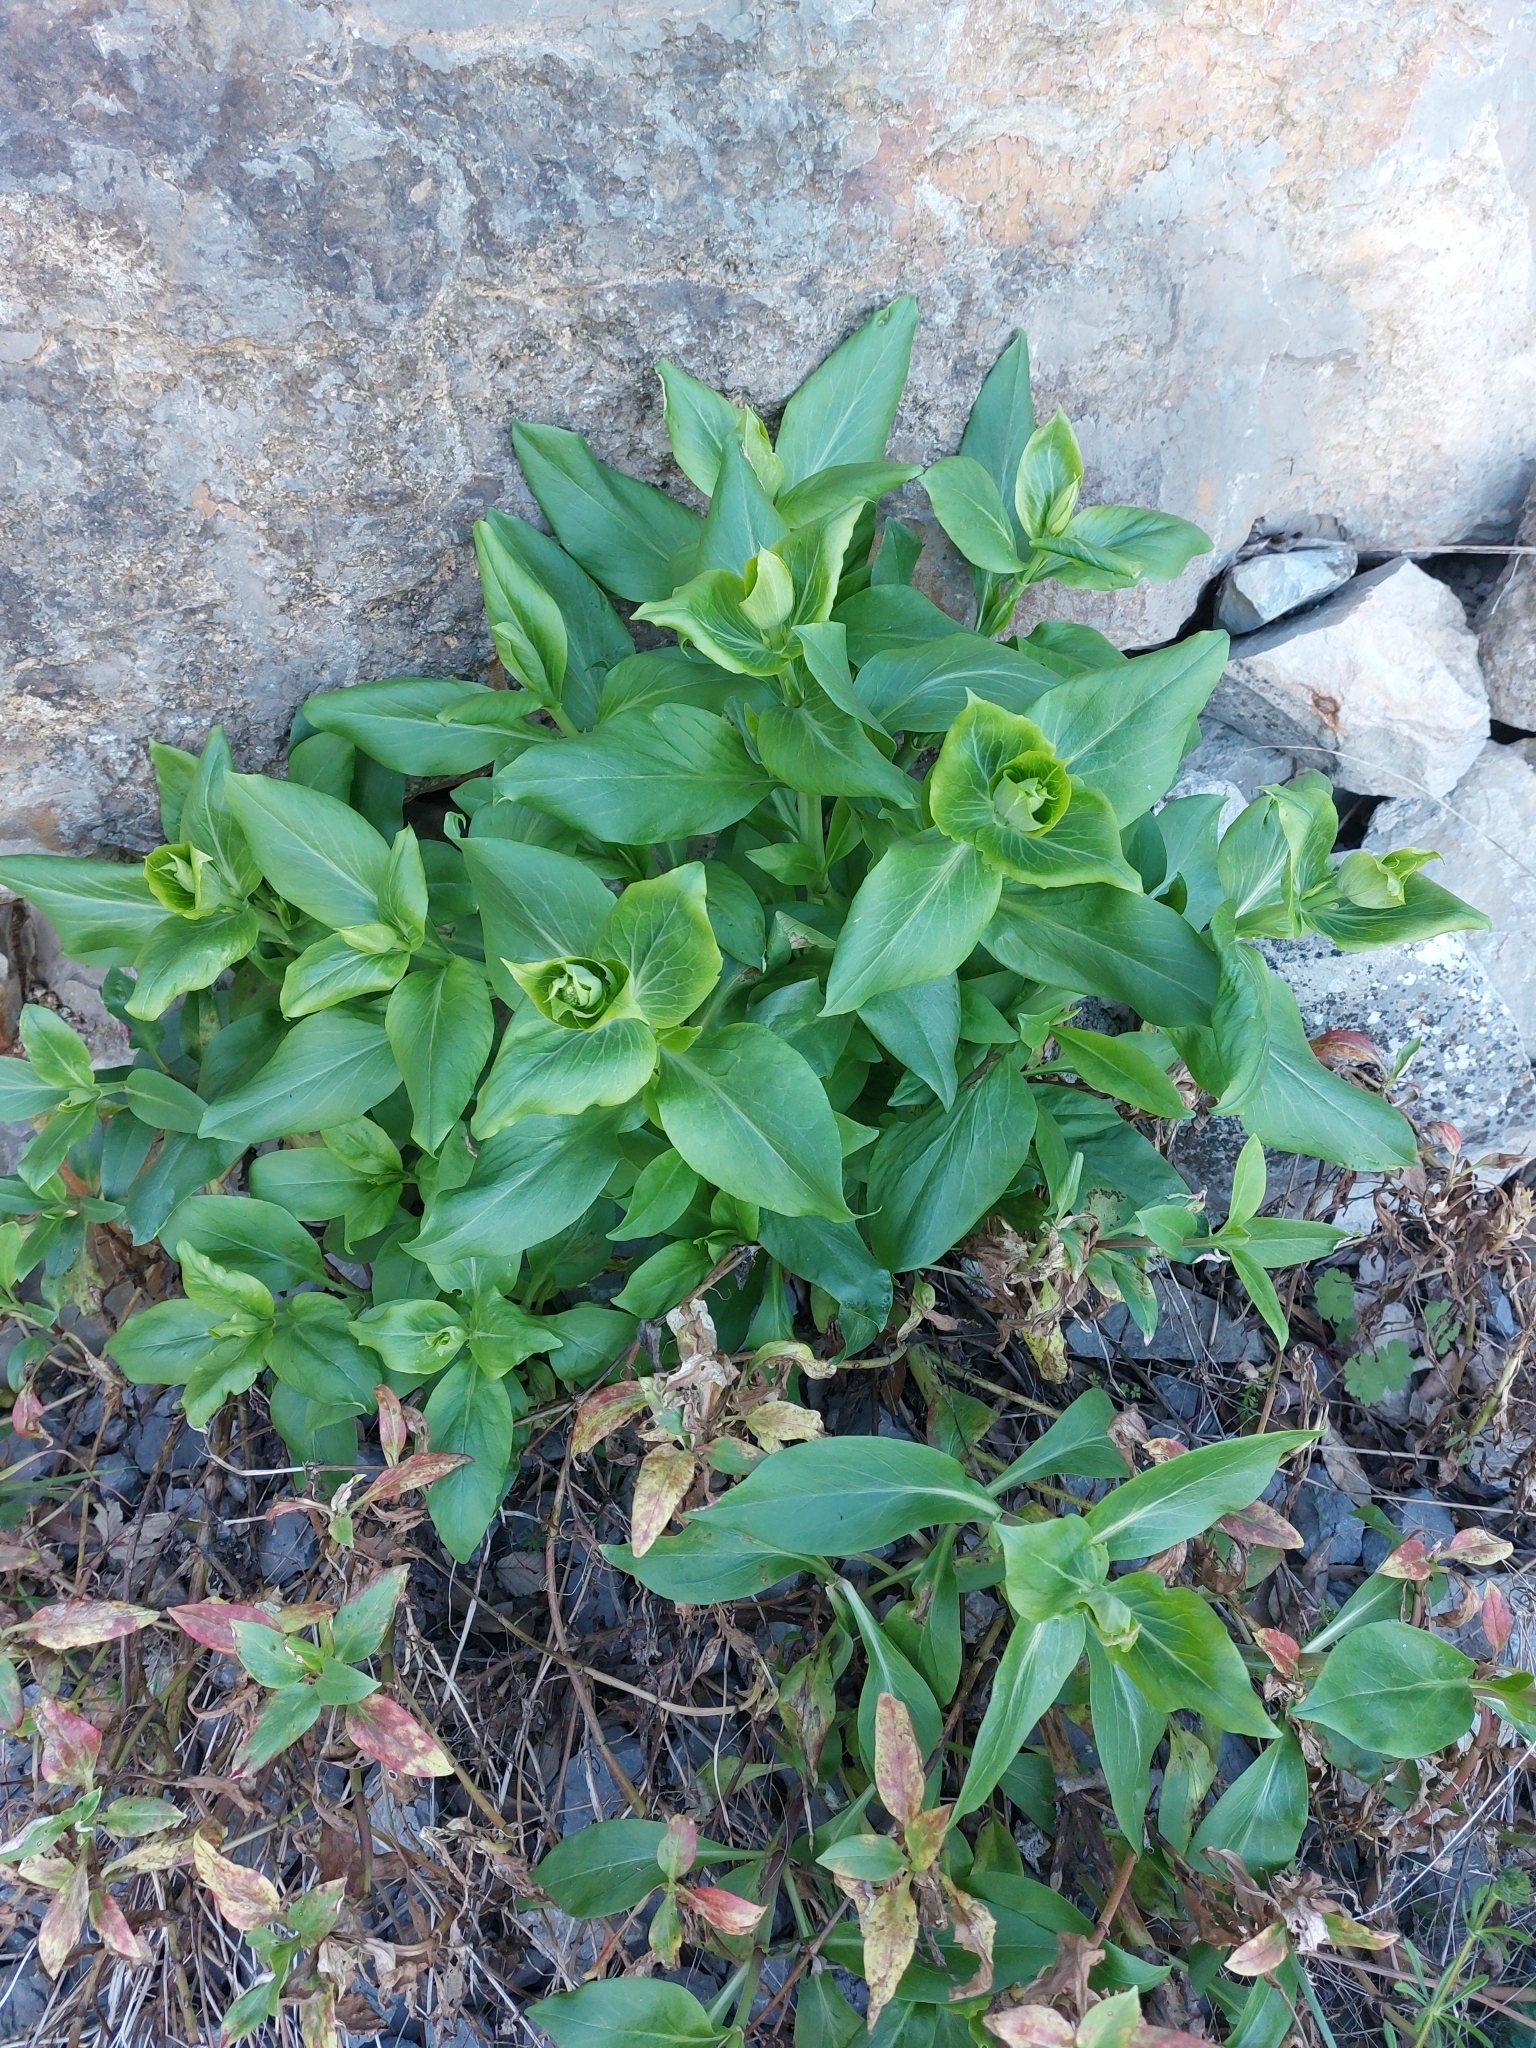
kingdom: Plantae
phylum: Tracheophyta
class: Magnoliopsida
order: Dipsacales
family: Caprifoliaceae
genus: Centranthus
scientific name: Centranthus ruber
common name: Red valerian
